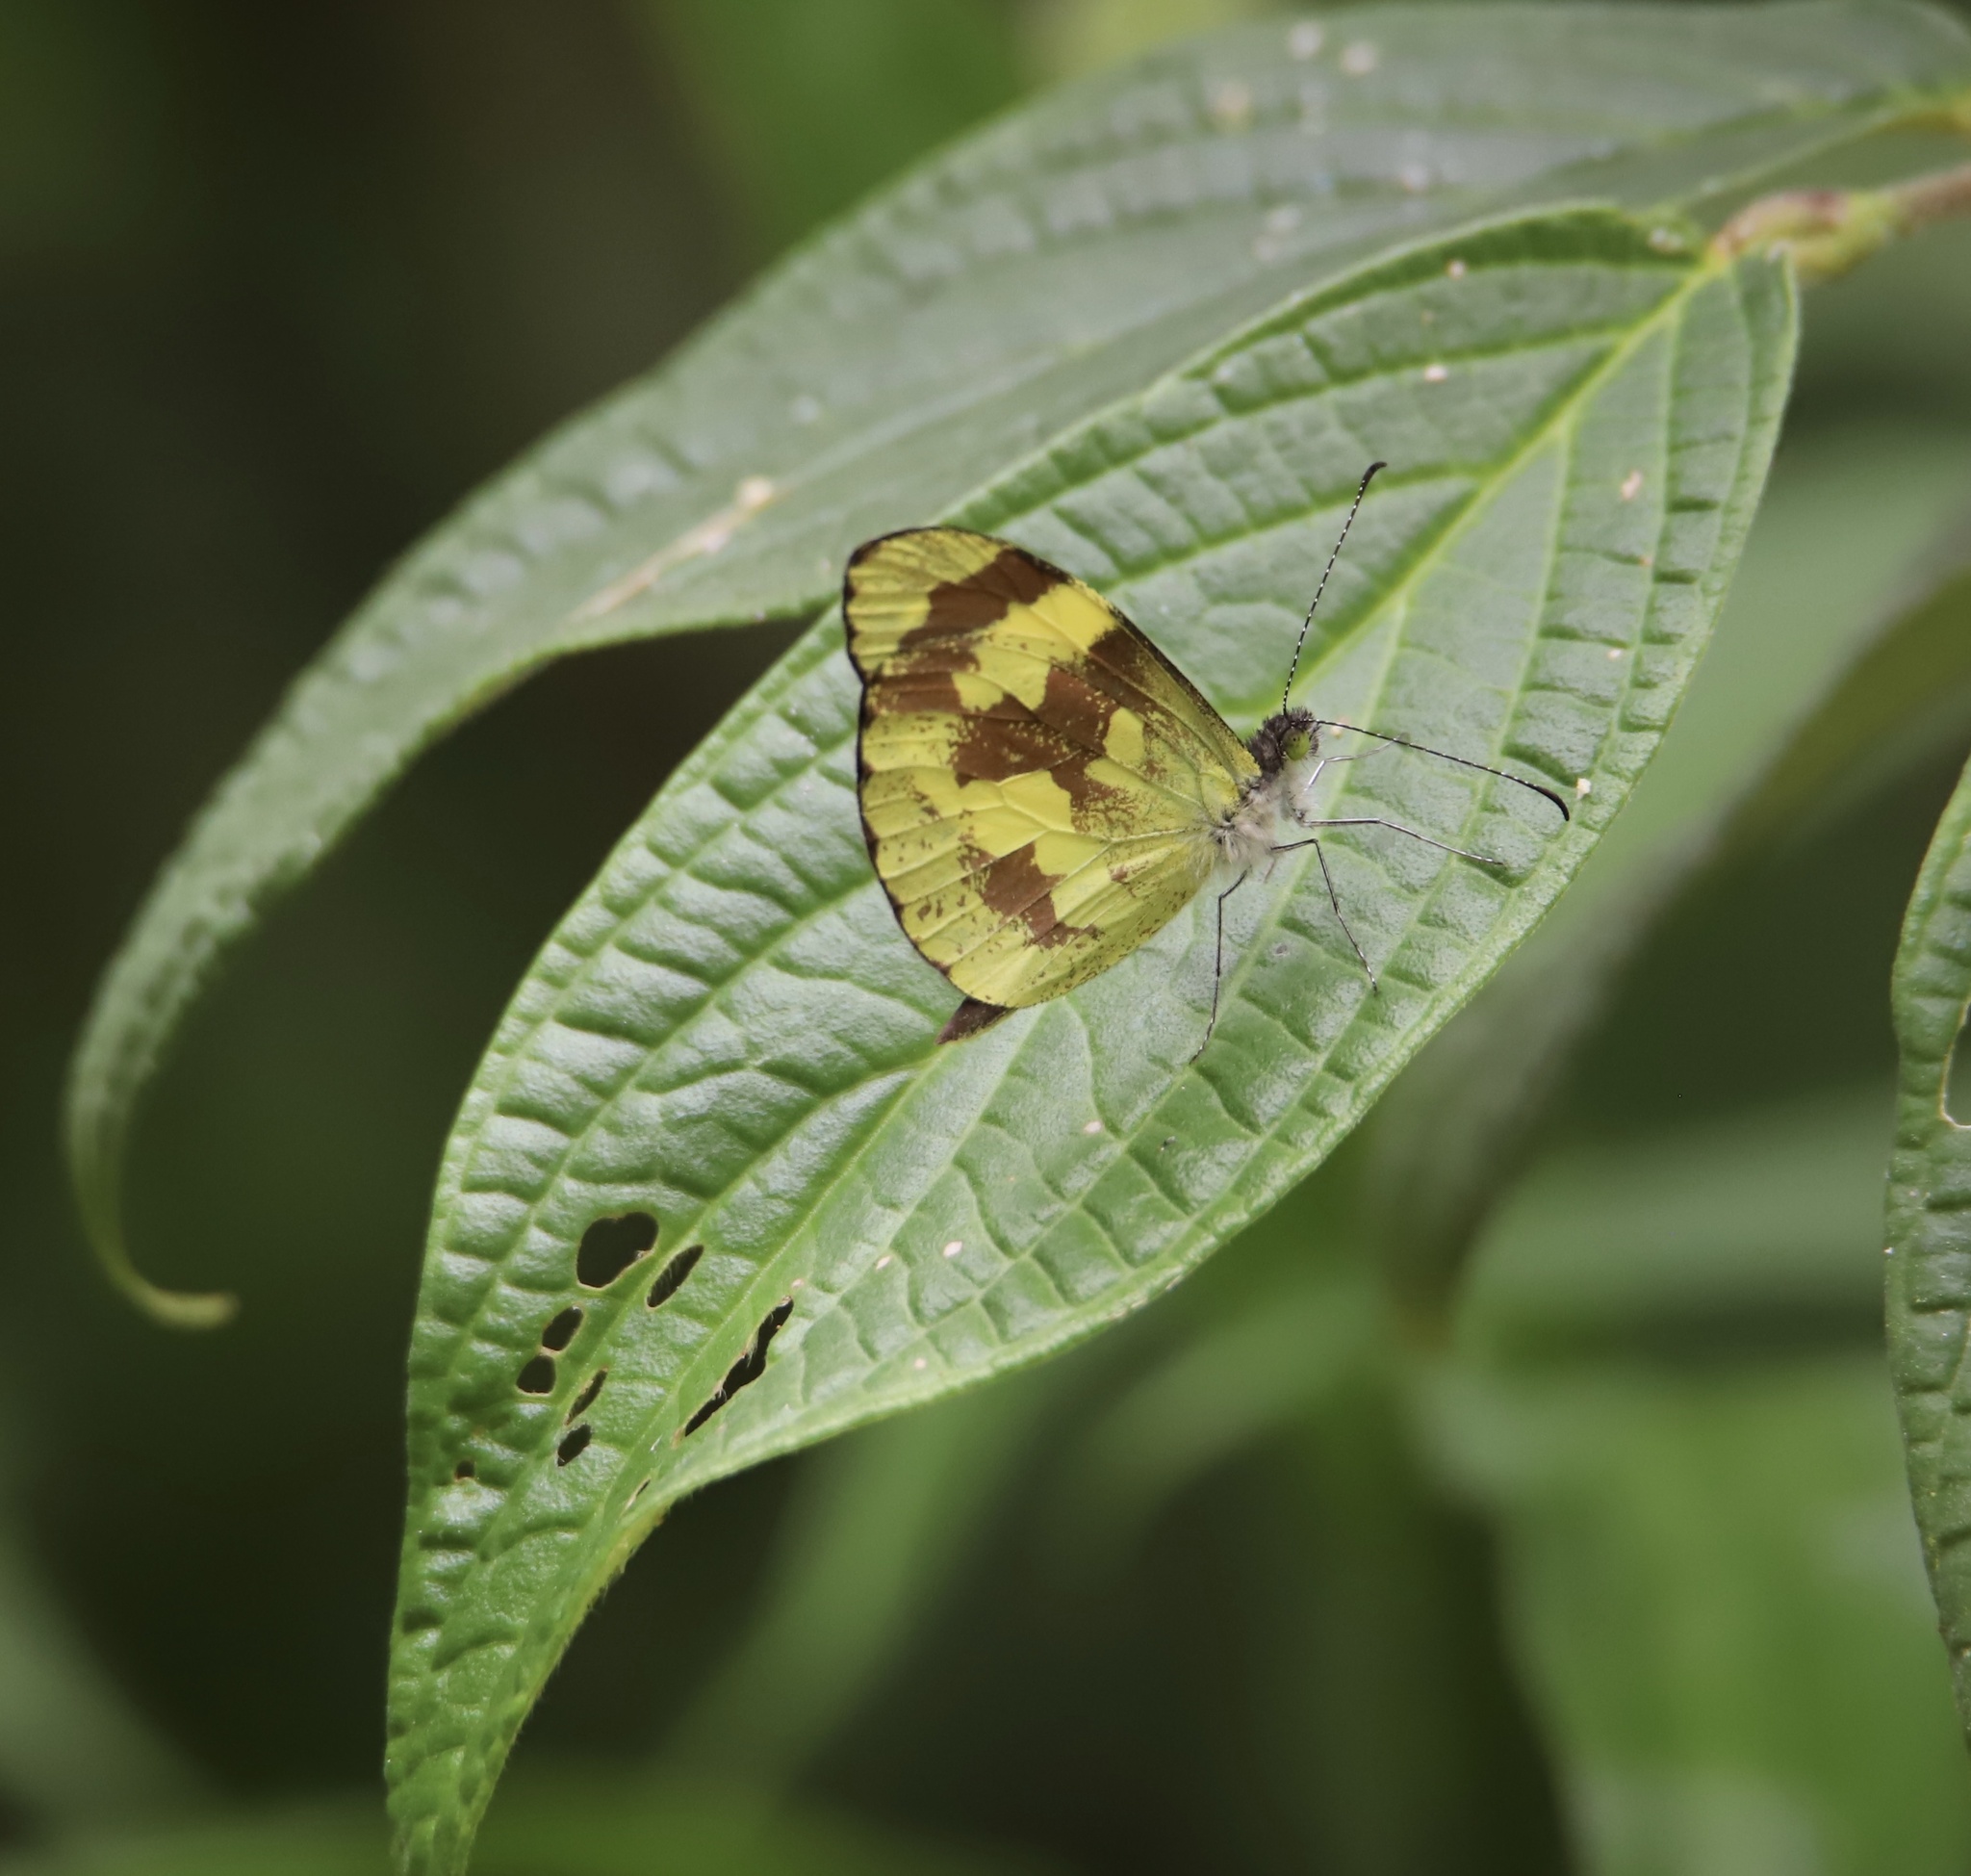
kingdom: Animalia
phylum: Arthropoda
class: Insecta
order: Lepidoptera
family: Pieridae
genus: Dismorphia
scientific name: Dismorphia medora
